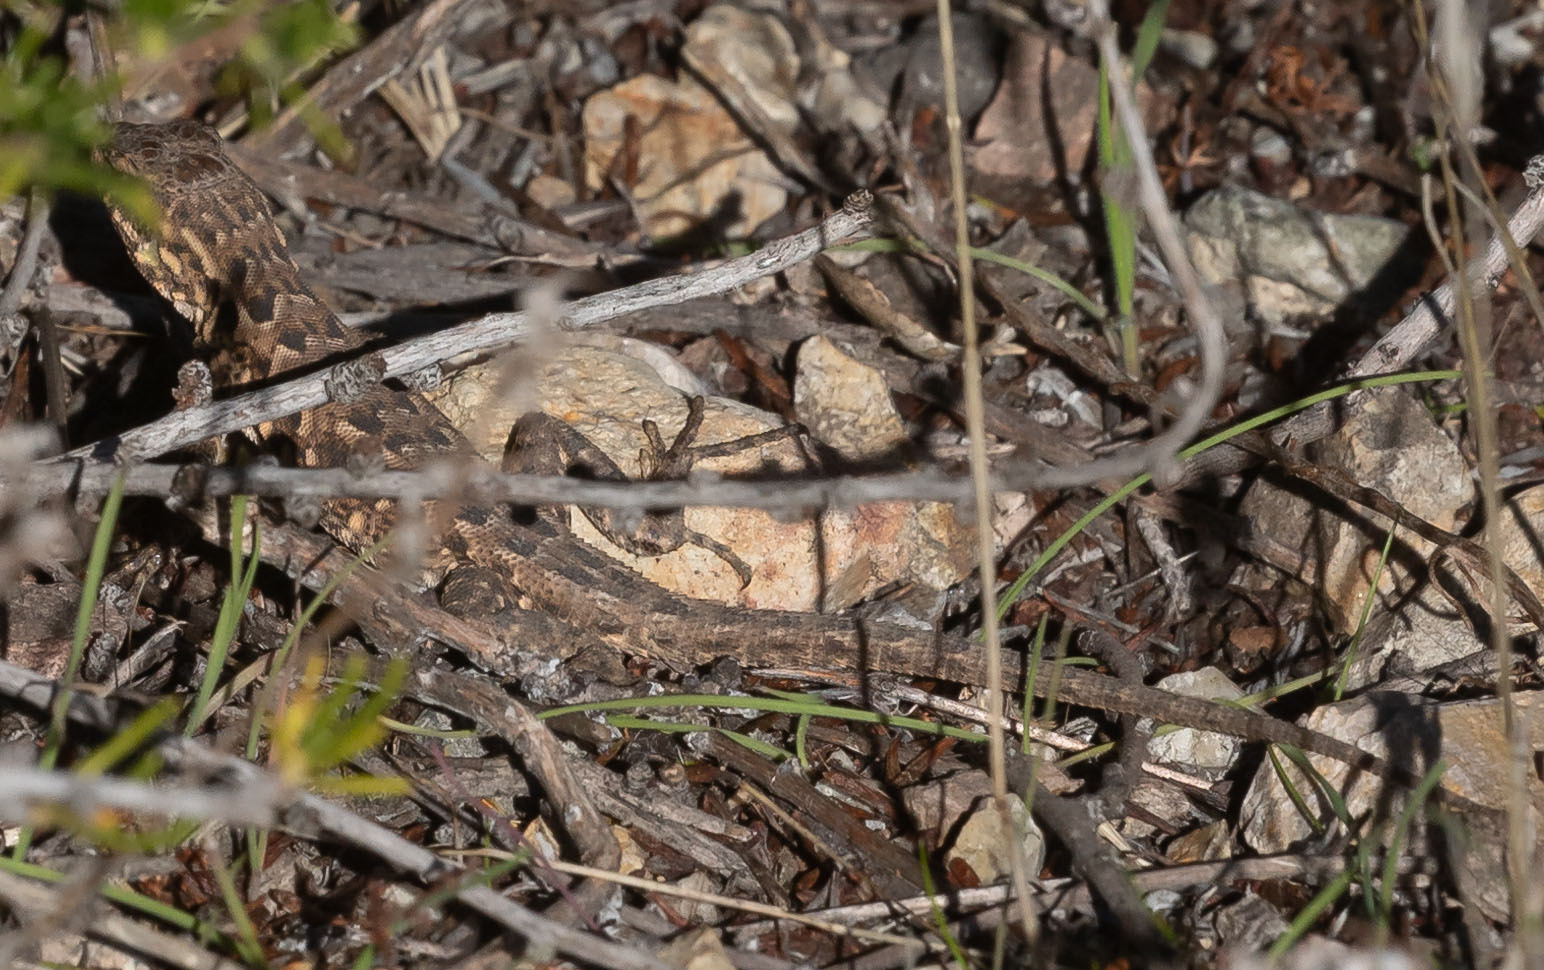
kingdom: Animalia
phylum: Chordata
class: Squamata
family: Phrynosomatidae
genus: Uta
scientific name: Uta stansburiana
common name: Side-blotched lizard
